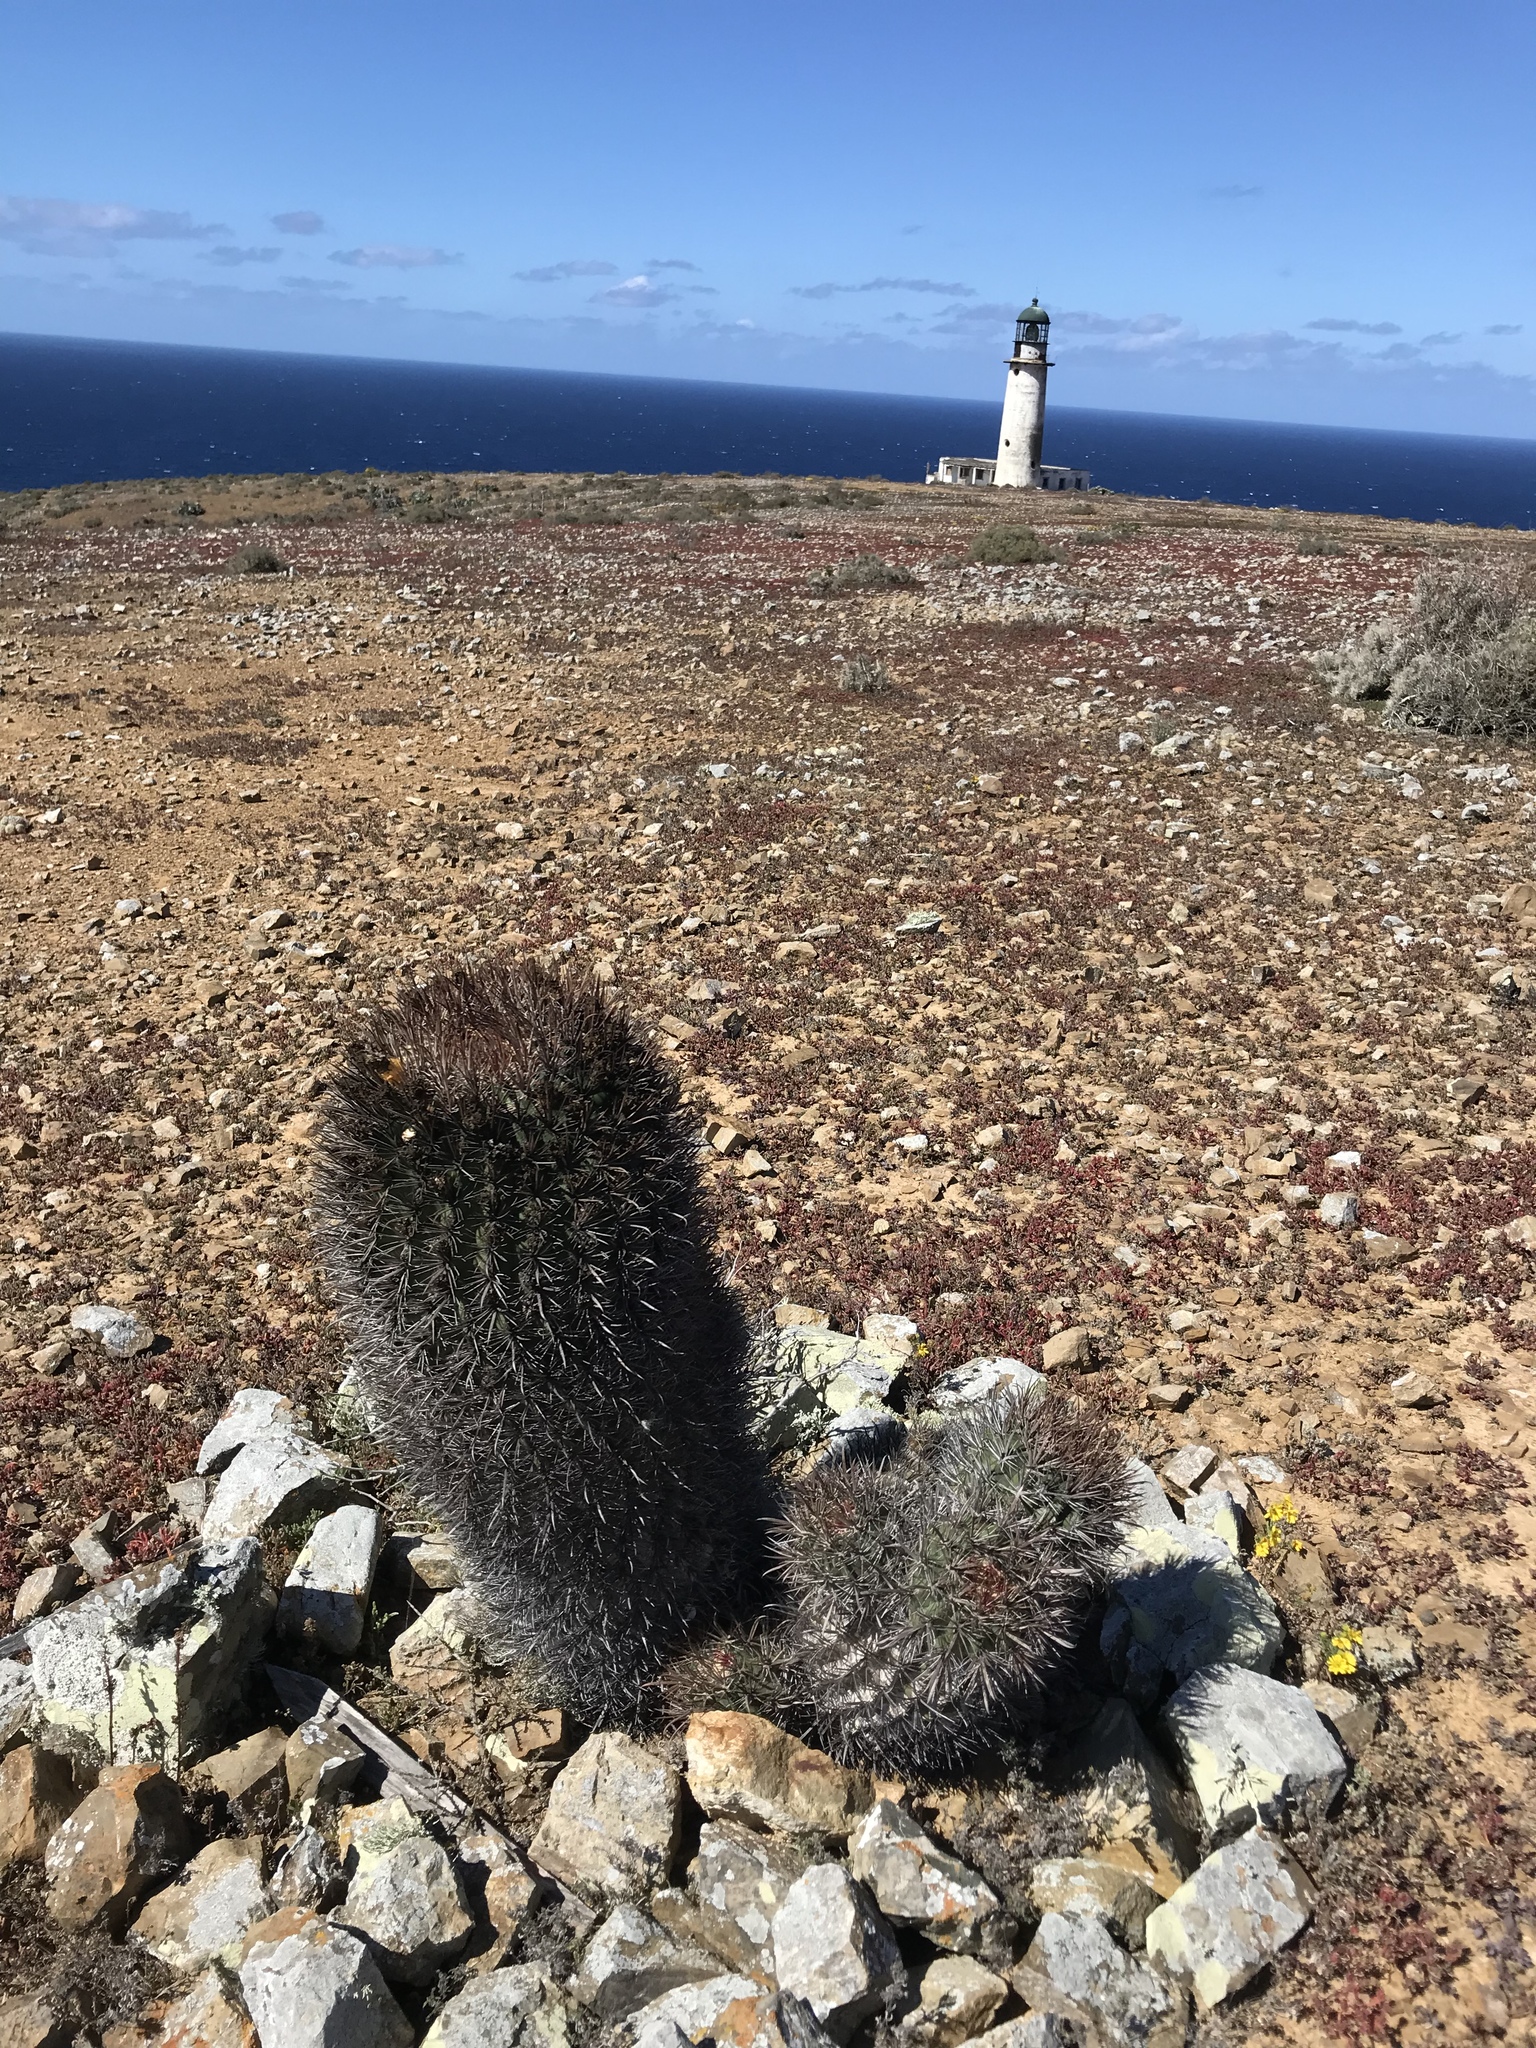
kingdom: Plantae
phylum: Tracheophyta
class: Magnoliopsida
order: Caryophyllales
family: Cactaceae
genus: Ferocactus
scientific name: Ferocactus chrysacanthus
